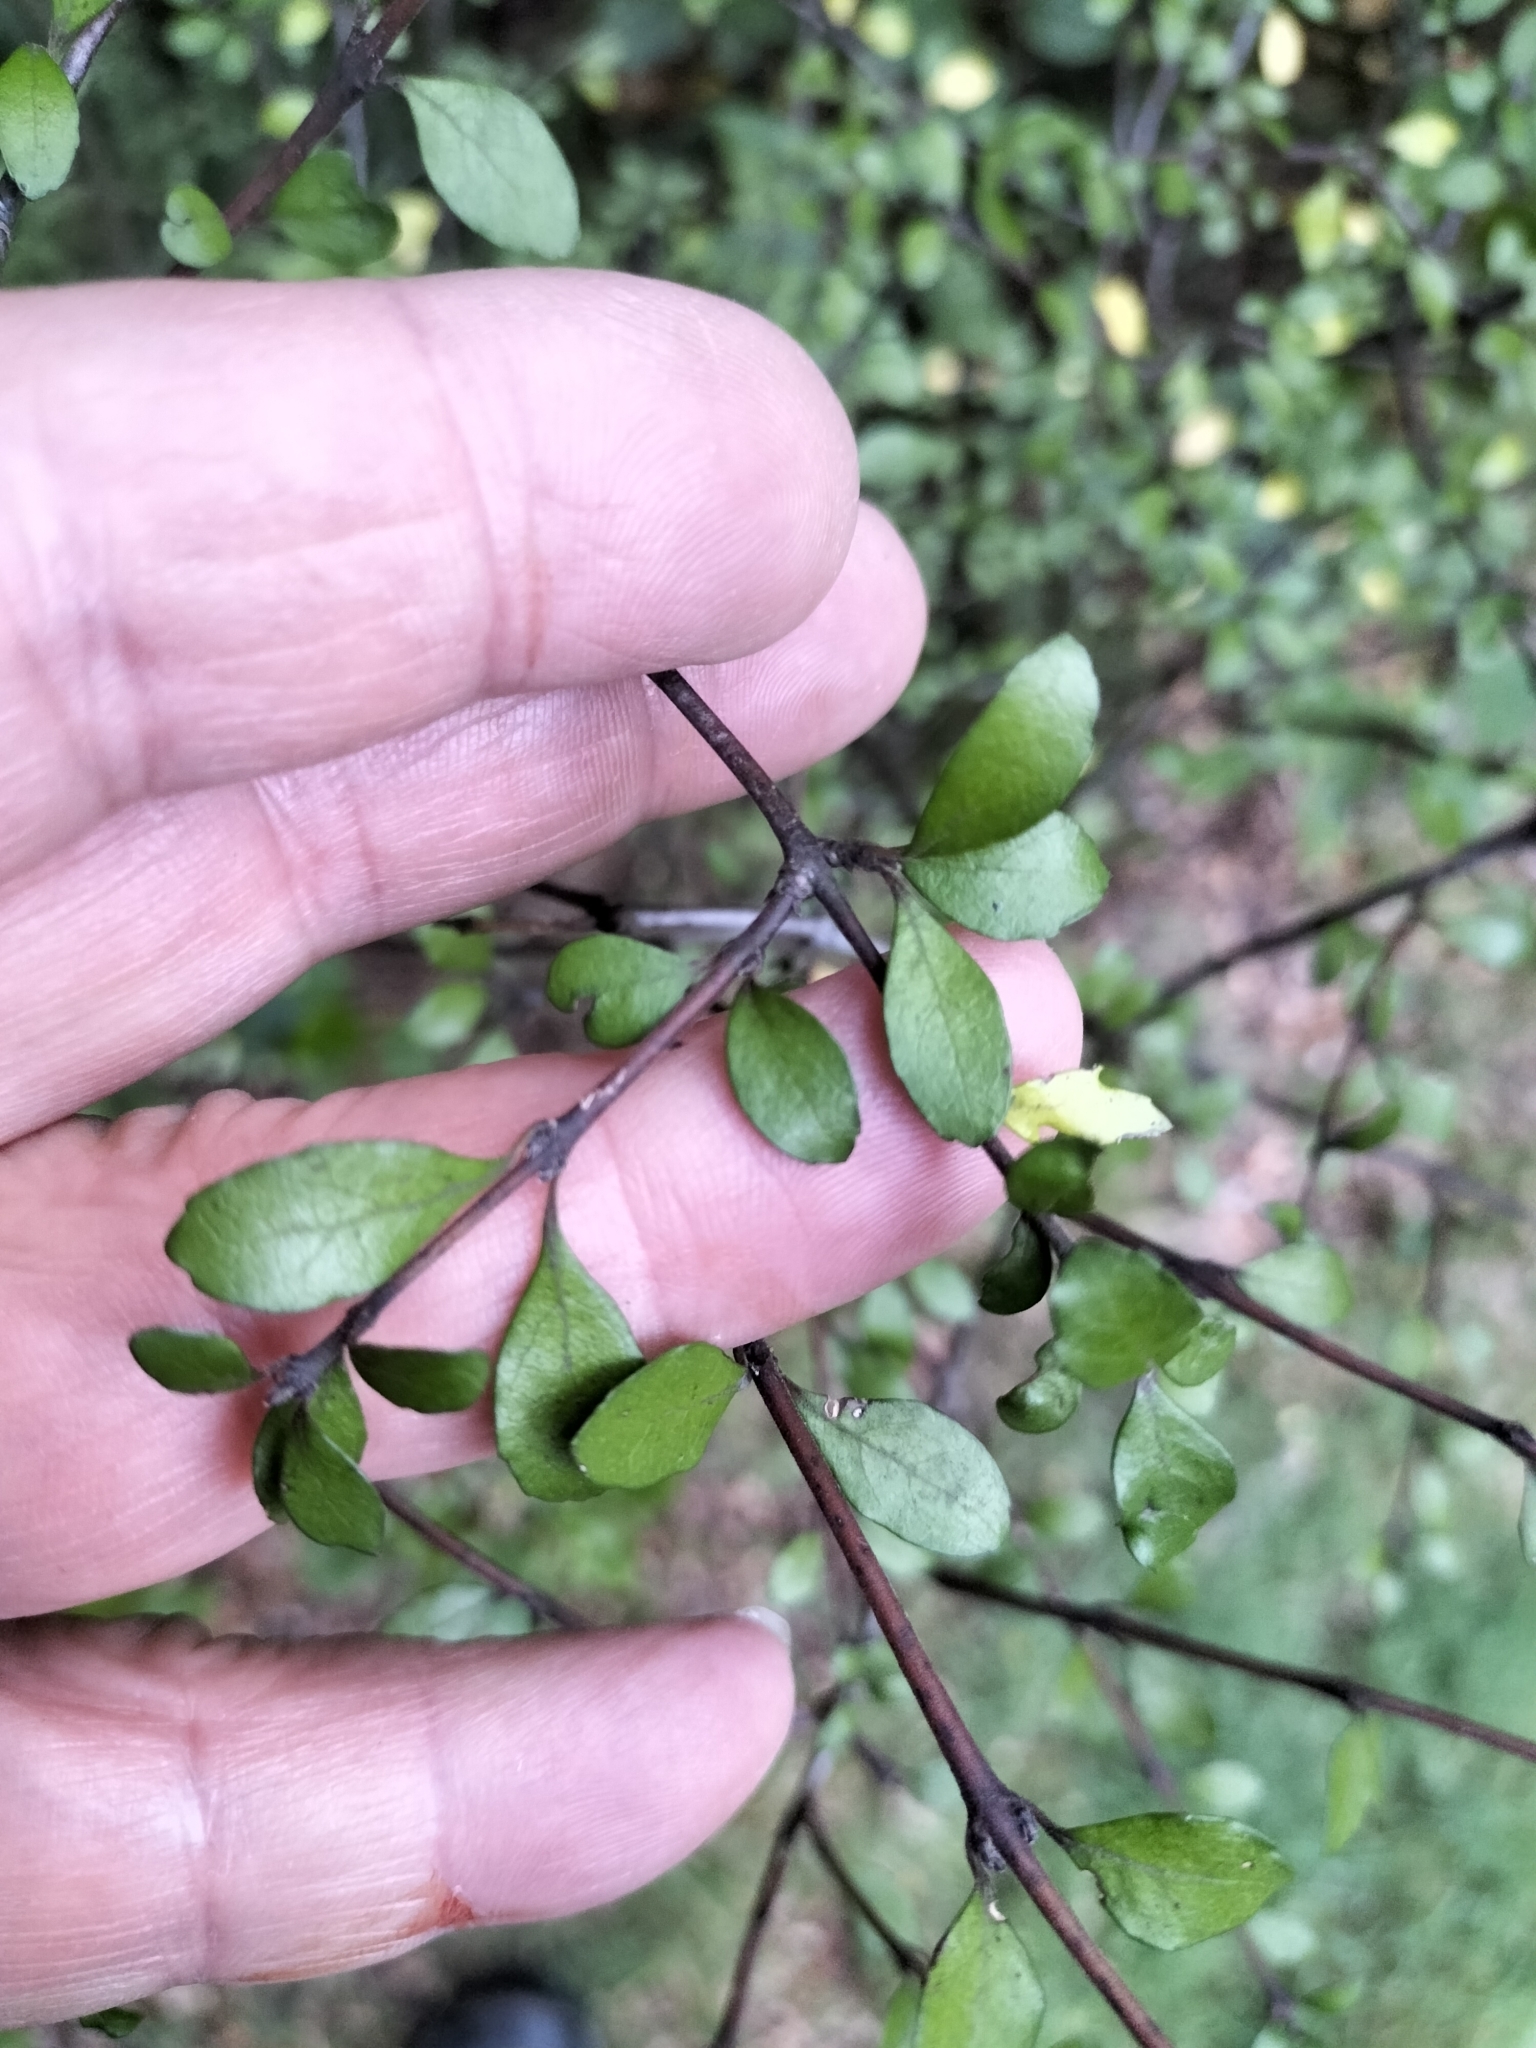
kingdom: Plantae
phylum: Tracheophyta
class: Magnoliopsida
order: Oxalidales
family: Elaeocarpaceae
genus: Aristotelia
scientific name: Aristotelia fruticosa
